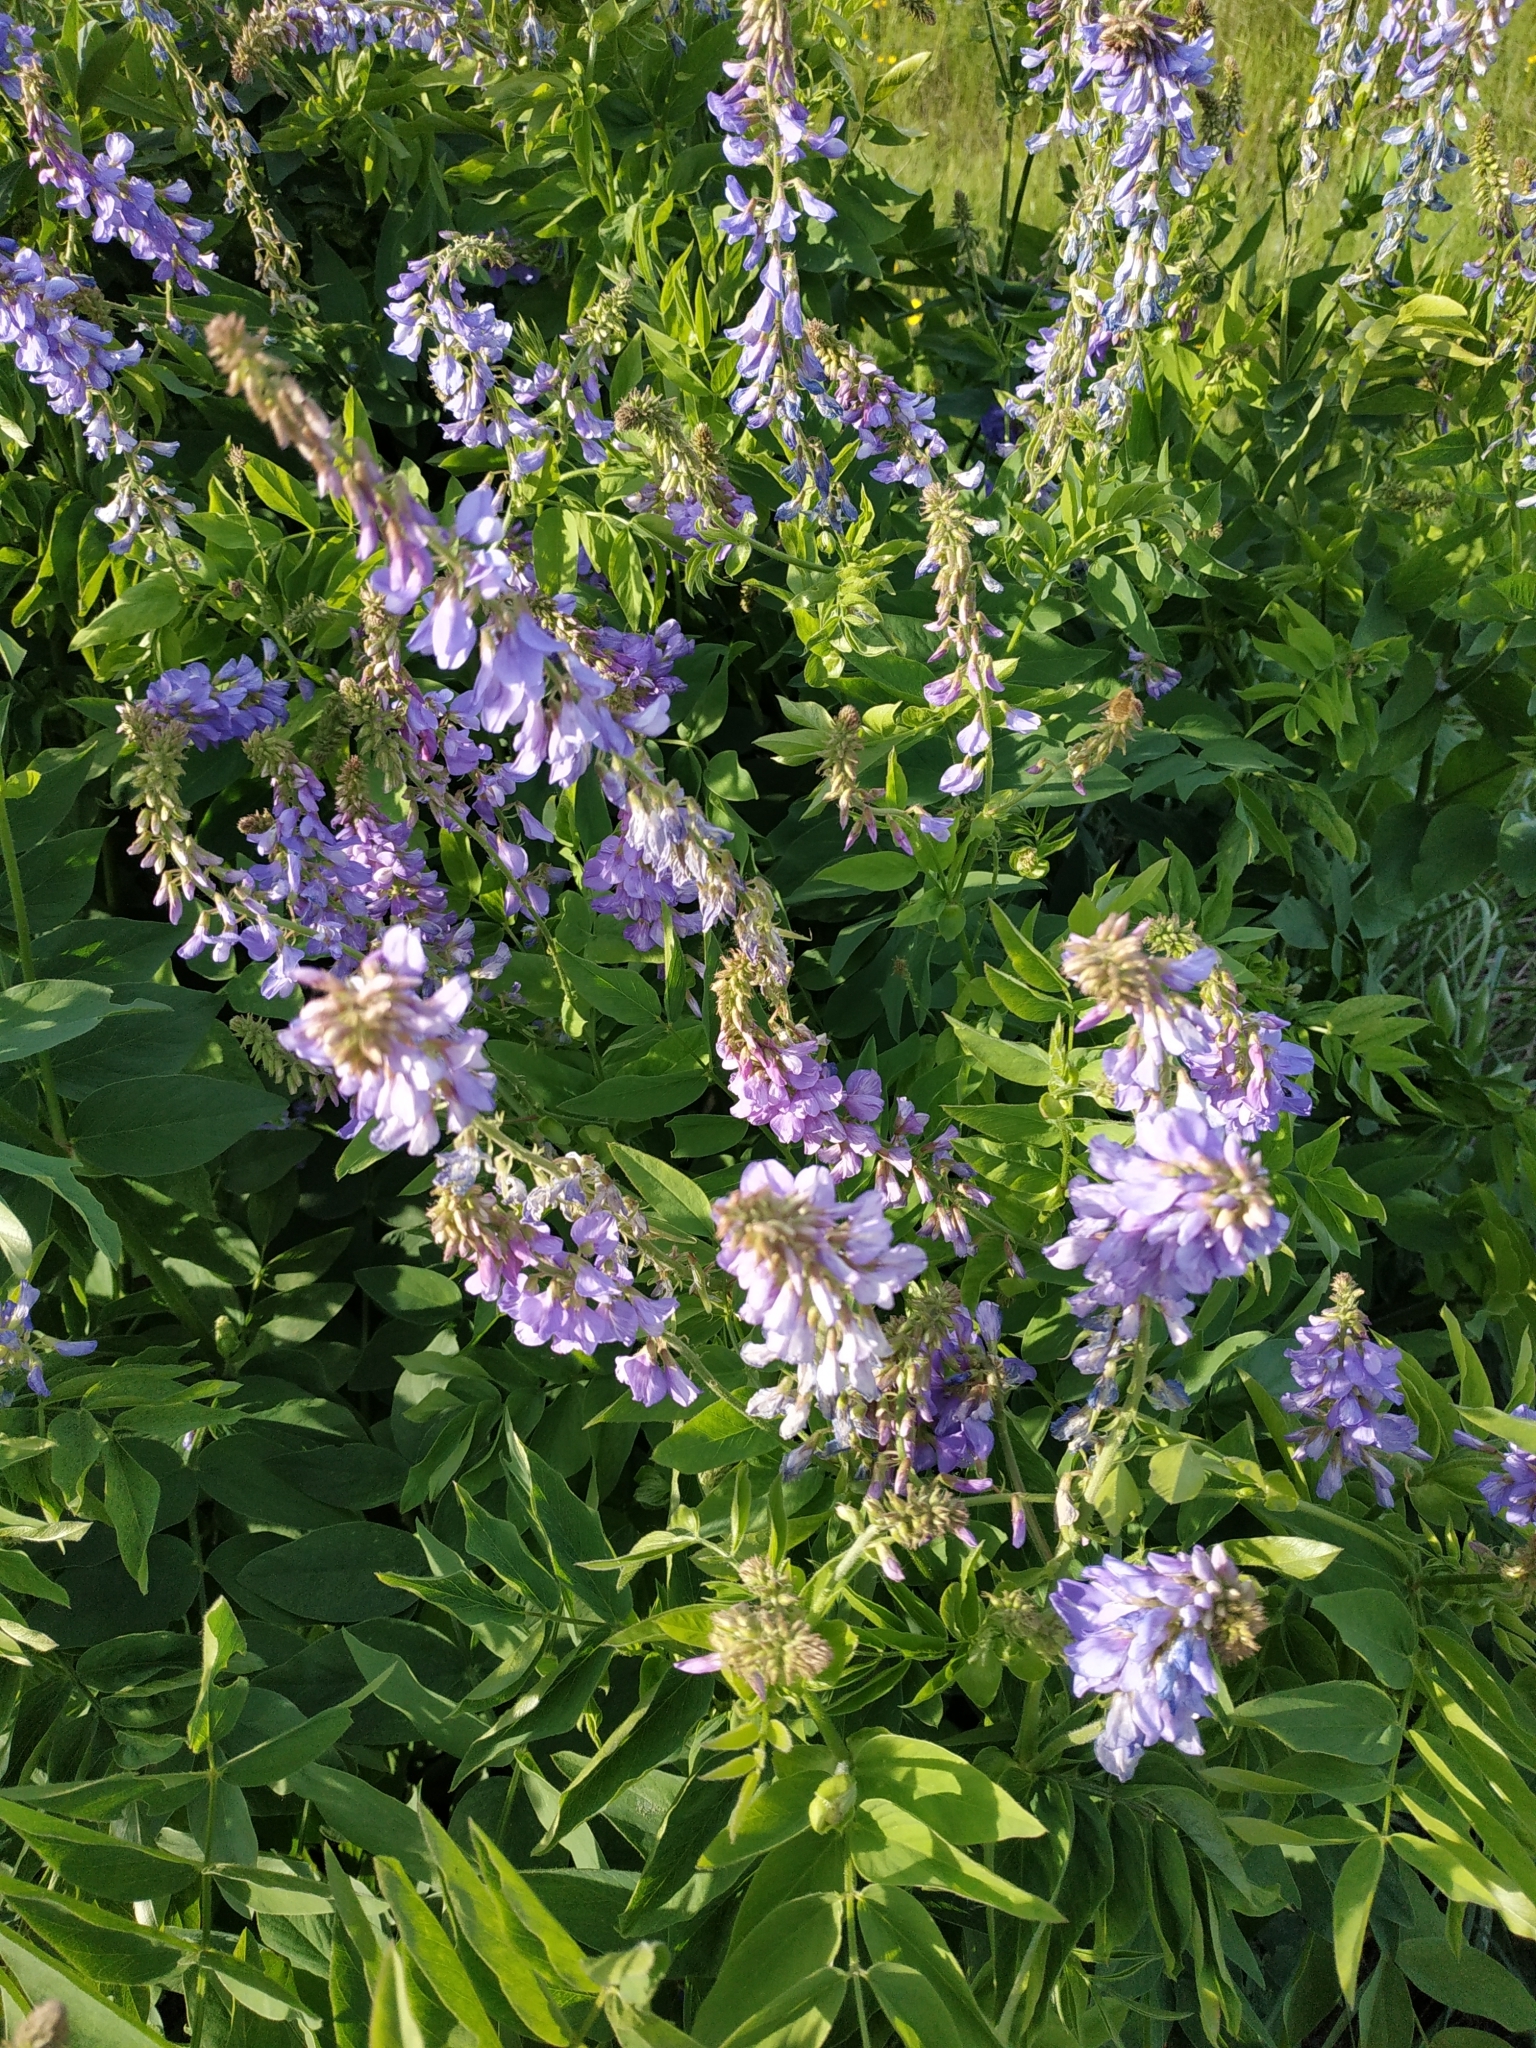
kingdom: Plantae
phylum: Tracheophyta
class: Magnoliopsida
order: Fabales
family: Fabaceae
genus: Galega
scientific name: Galega orientalis
